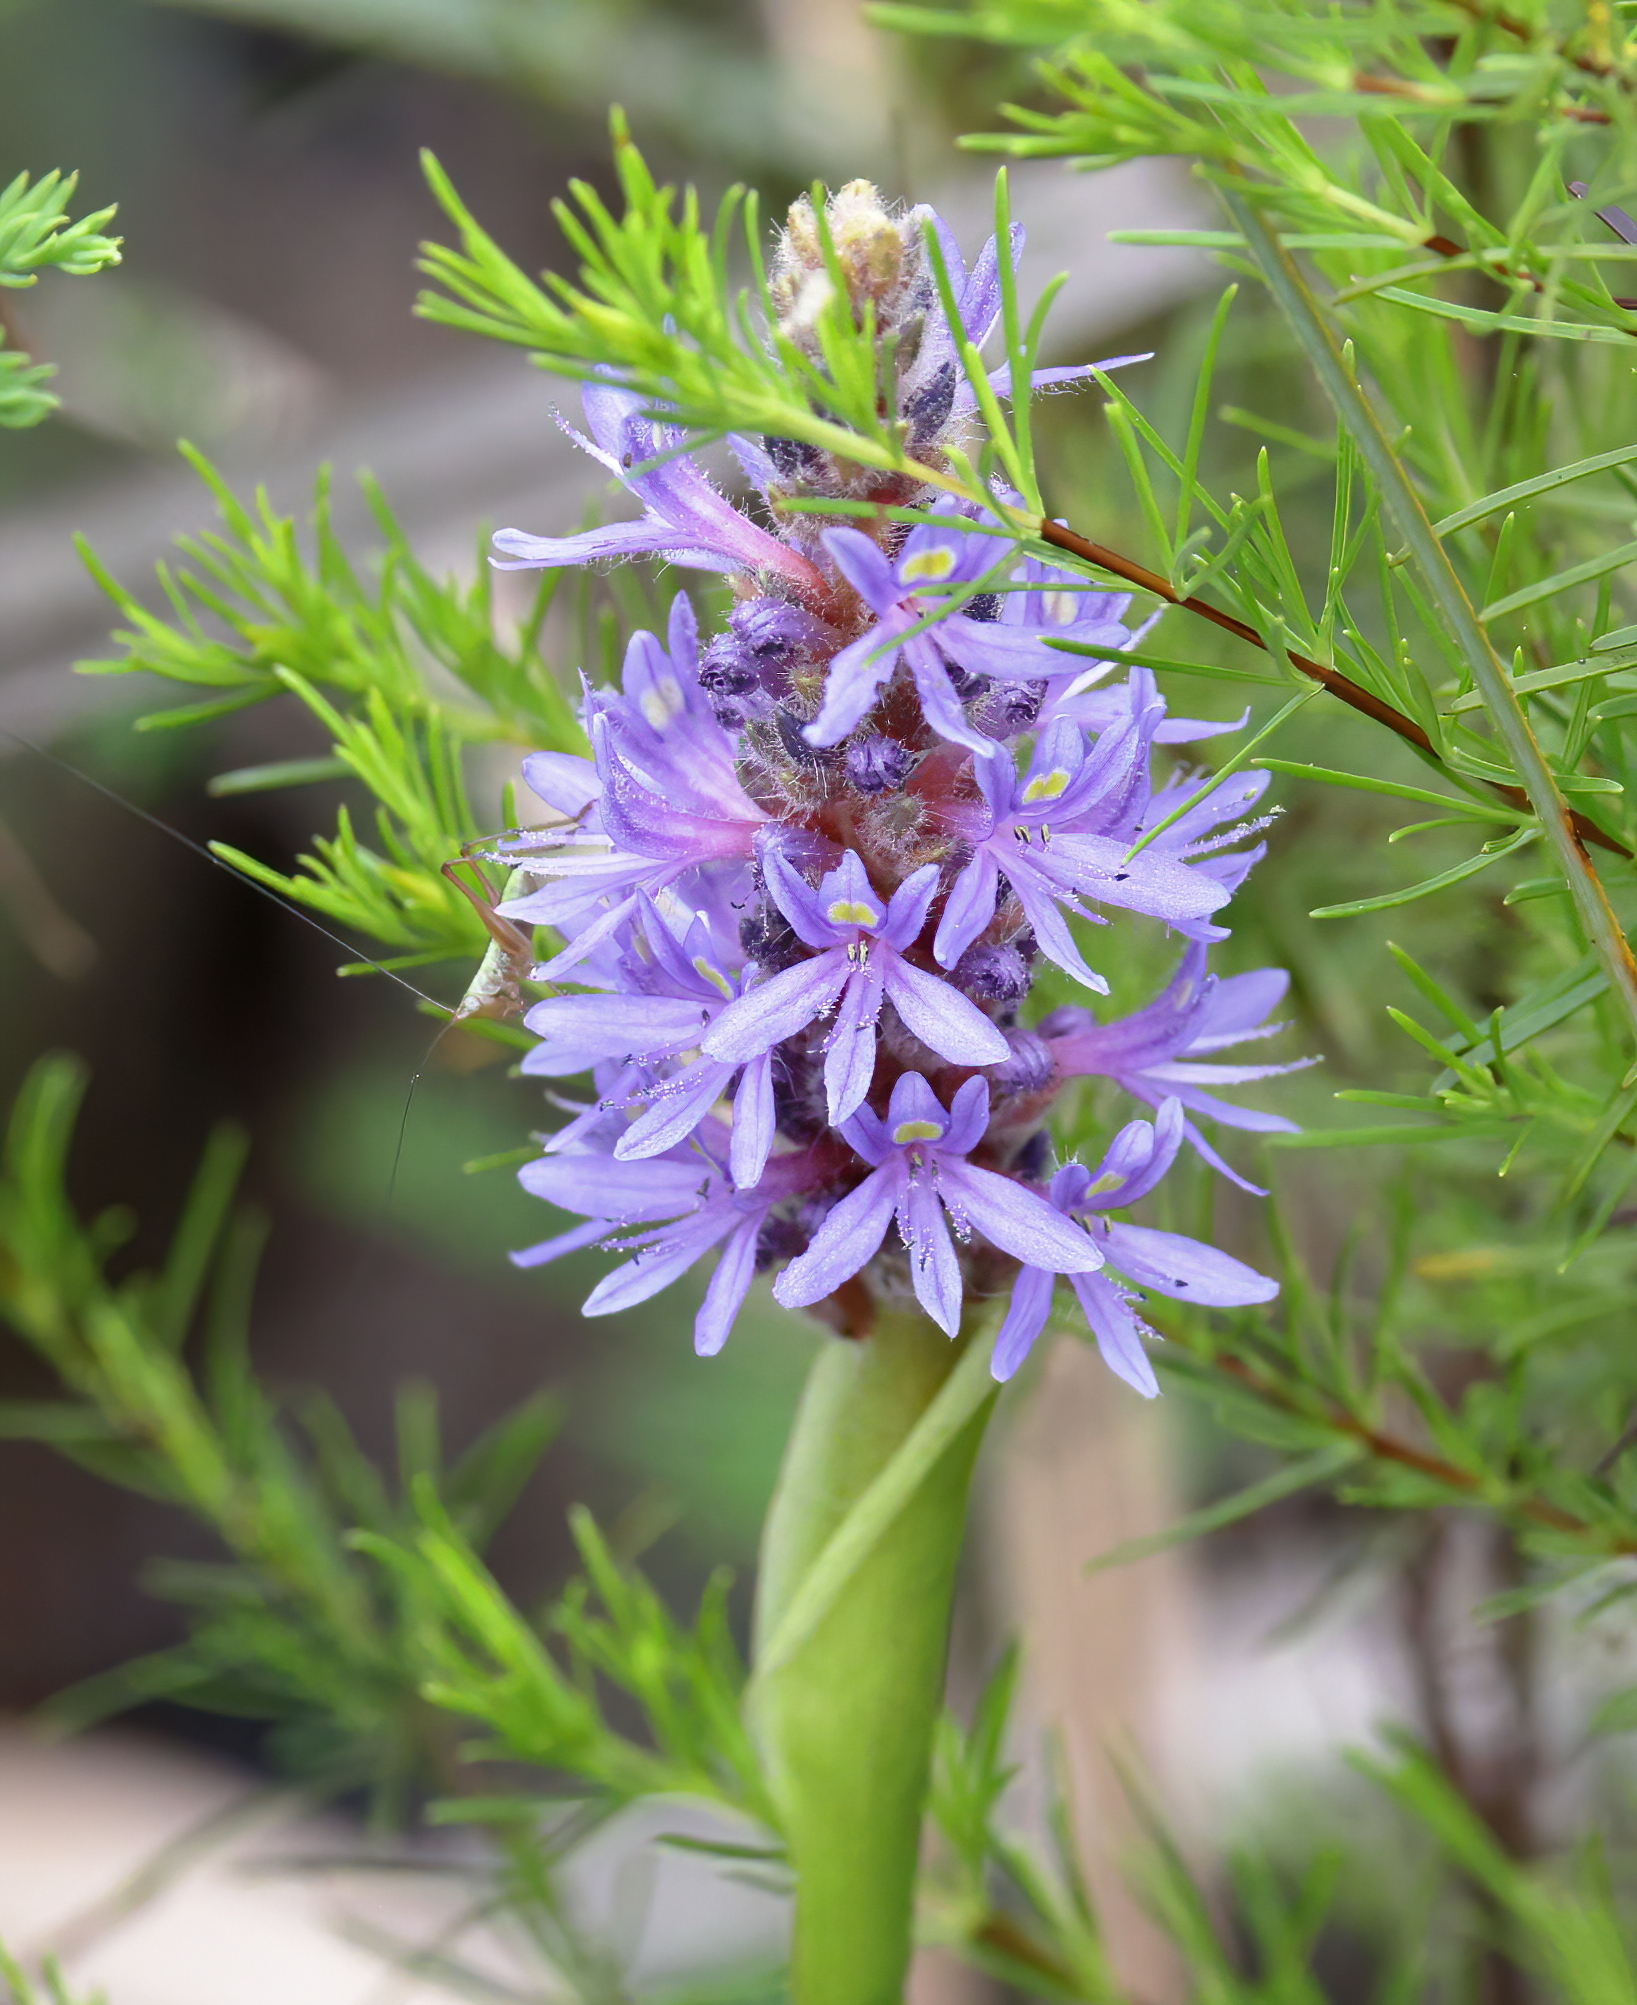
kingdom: Plantae
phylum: Tracheophyta
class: Liliopsida
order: Commelinales
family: Pontederiaceae
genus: Pontederia
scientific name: Pontederia cordata
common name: Pickerelweed
